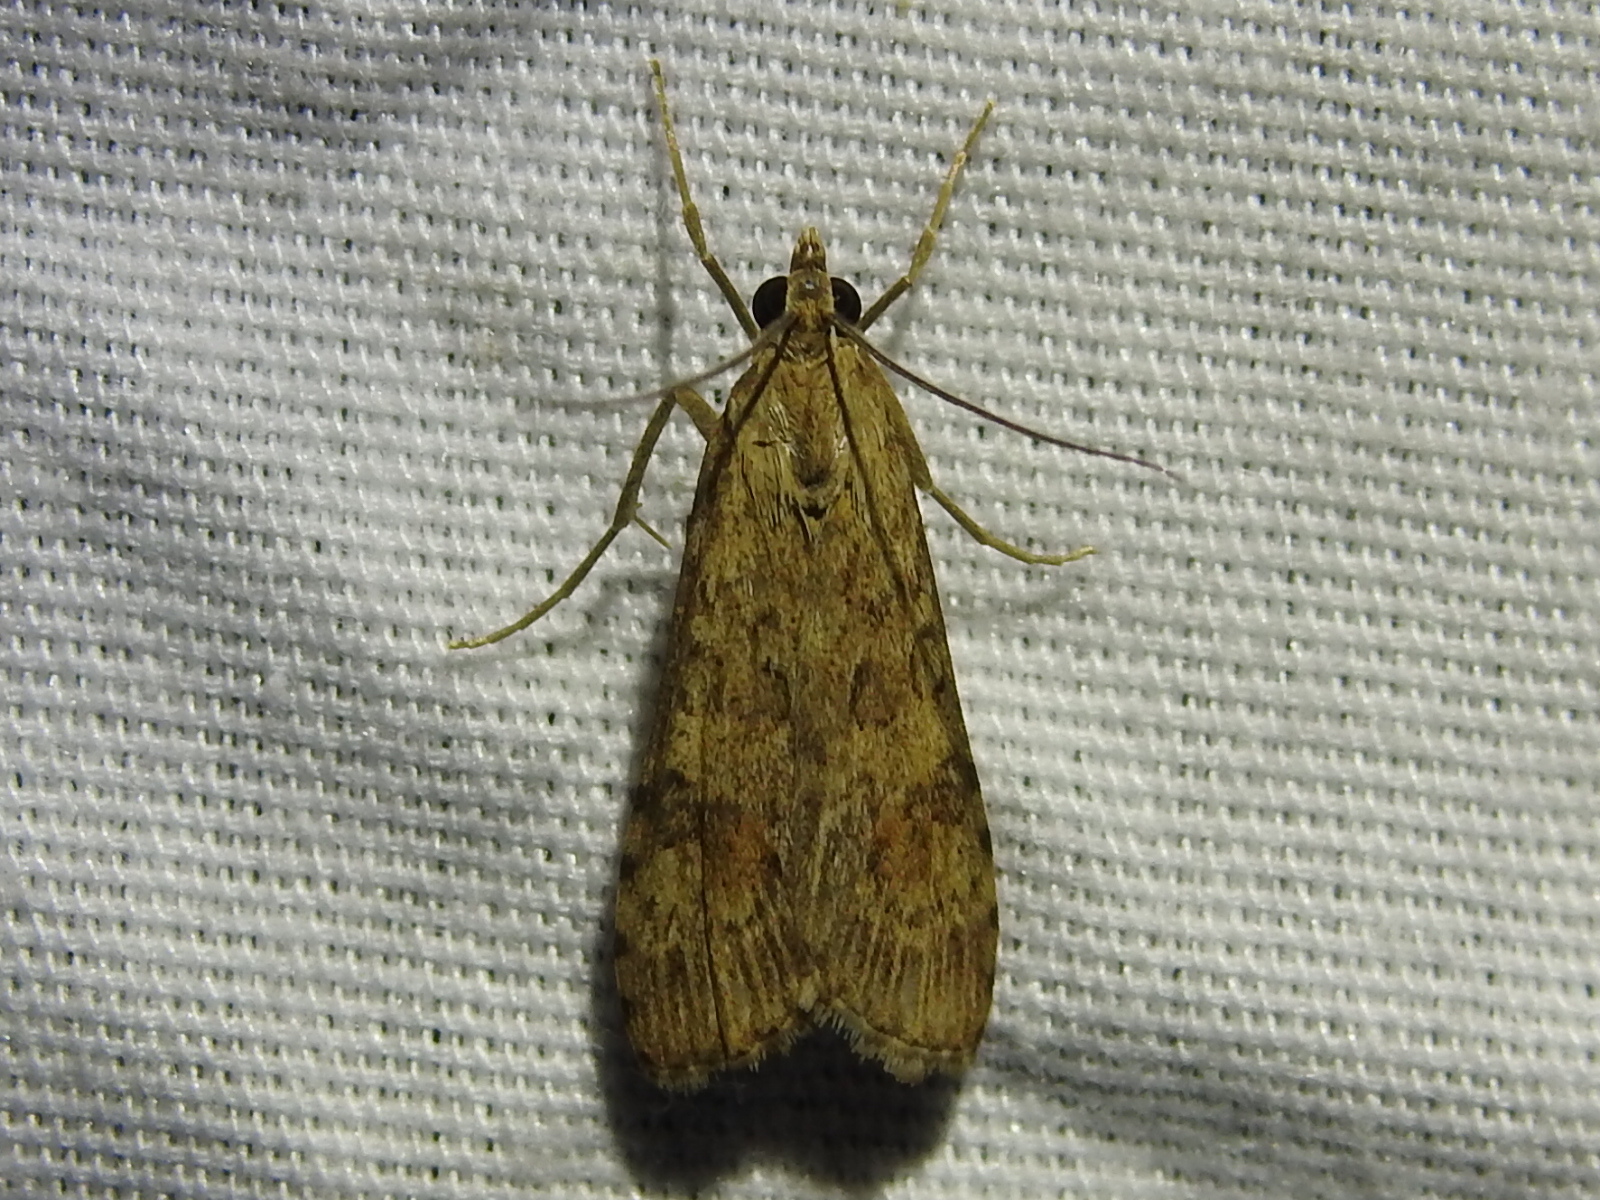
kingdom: Animalia
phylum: Arthropoda
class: Insecta
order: Lepidoptera
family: Crambidae
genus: Nomophila
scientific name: Nomophila nearctica
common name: American rush veneer
